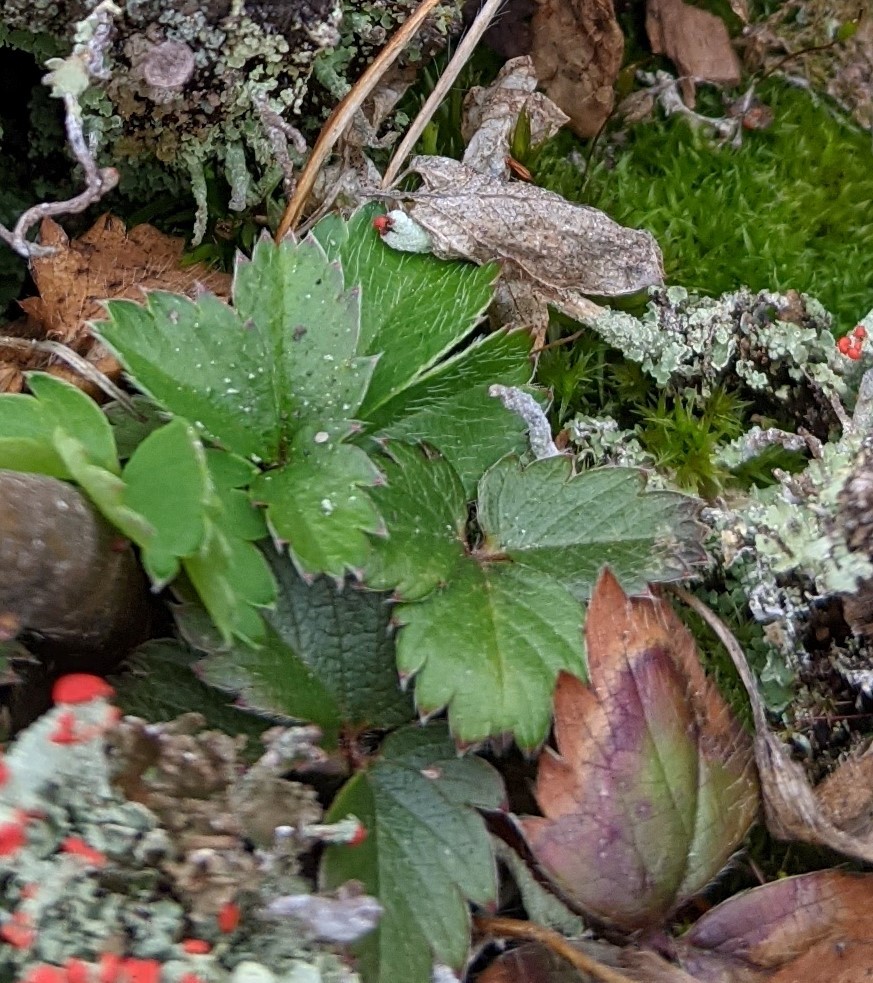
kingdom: Plantae
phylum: Tracheophyta
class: Magnoliopsida
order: Rosales
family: Rosaceae
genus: Fragaria
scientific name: Fragaria virginiana
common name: Thickleaved wild strawberry
